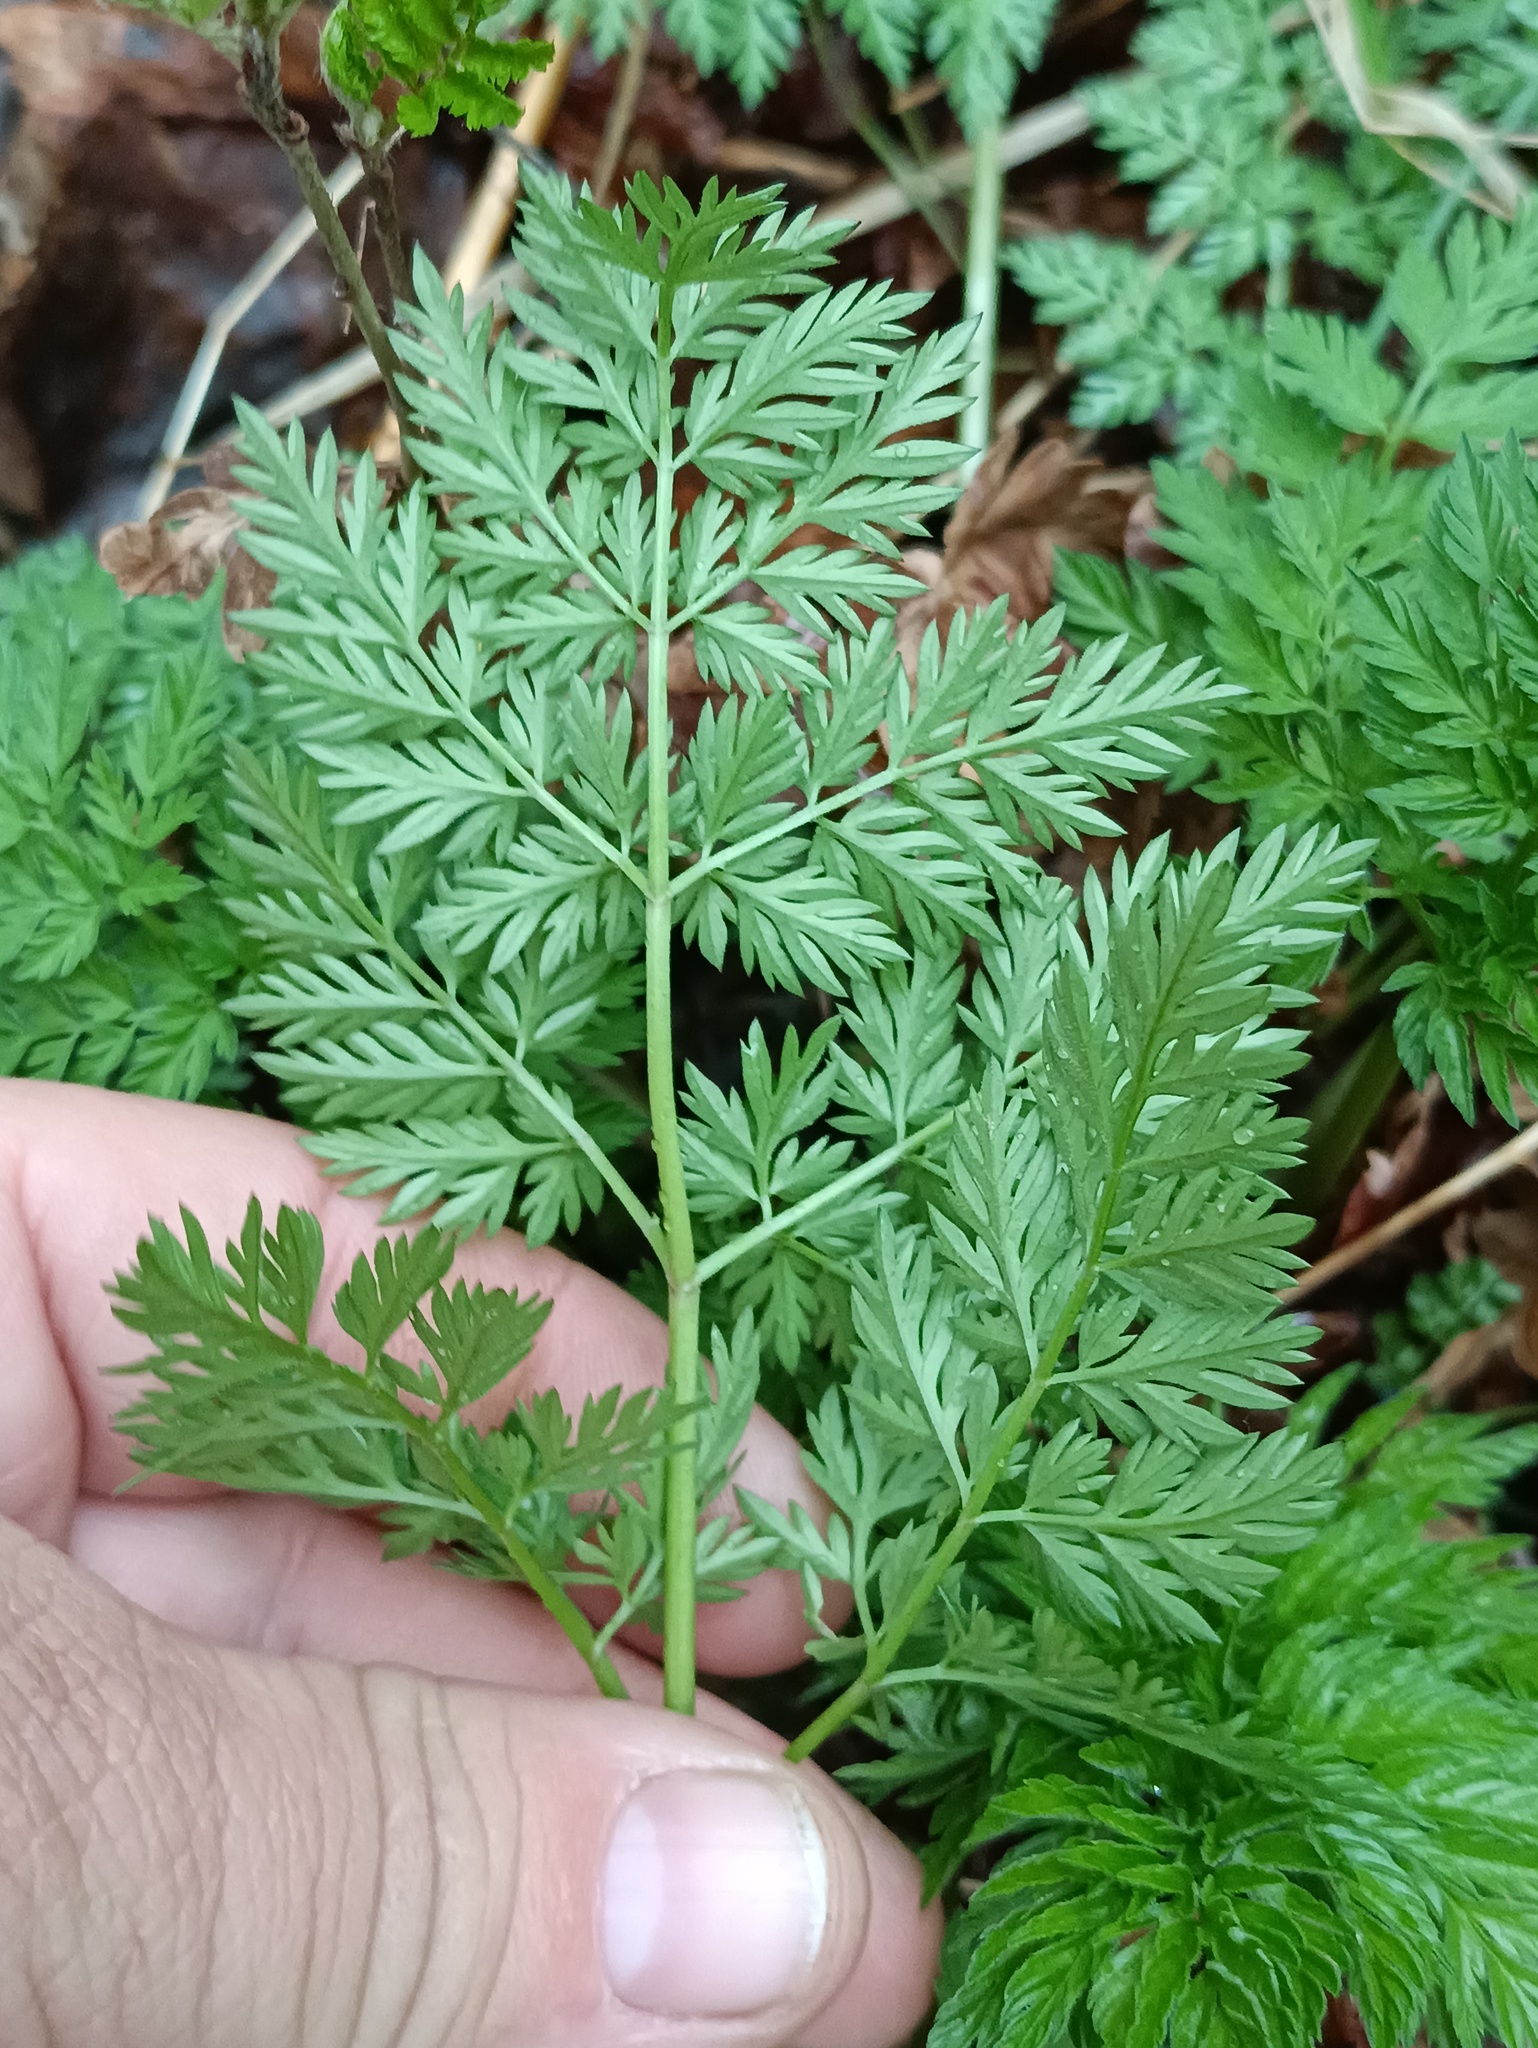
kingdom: Plantae
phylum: Tracheophyta
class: Magnoliopsida
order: Apiales
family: Apiaceae
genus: Anthriscus
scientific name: Anthriscus sylvestris
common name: Cow parsley
